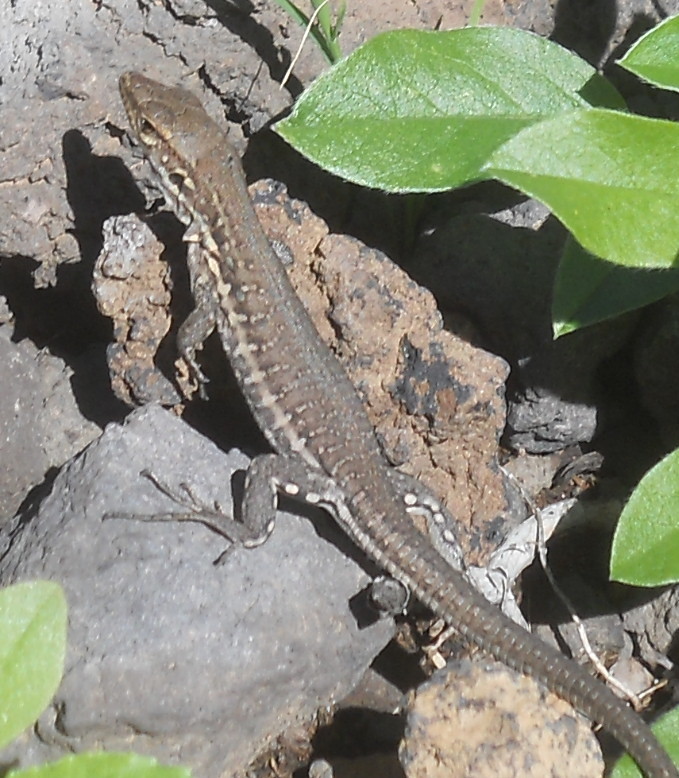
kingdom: Animalia
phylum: Chordata
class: Squamata
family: Lacertidae
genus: Gallotia
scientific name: Gallotia galloti
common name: Gallot's lizard
